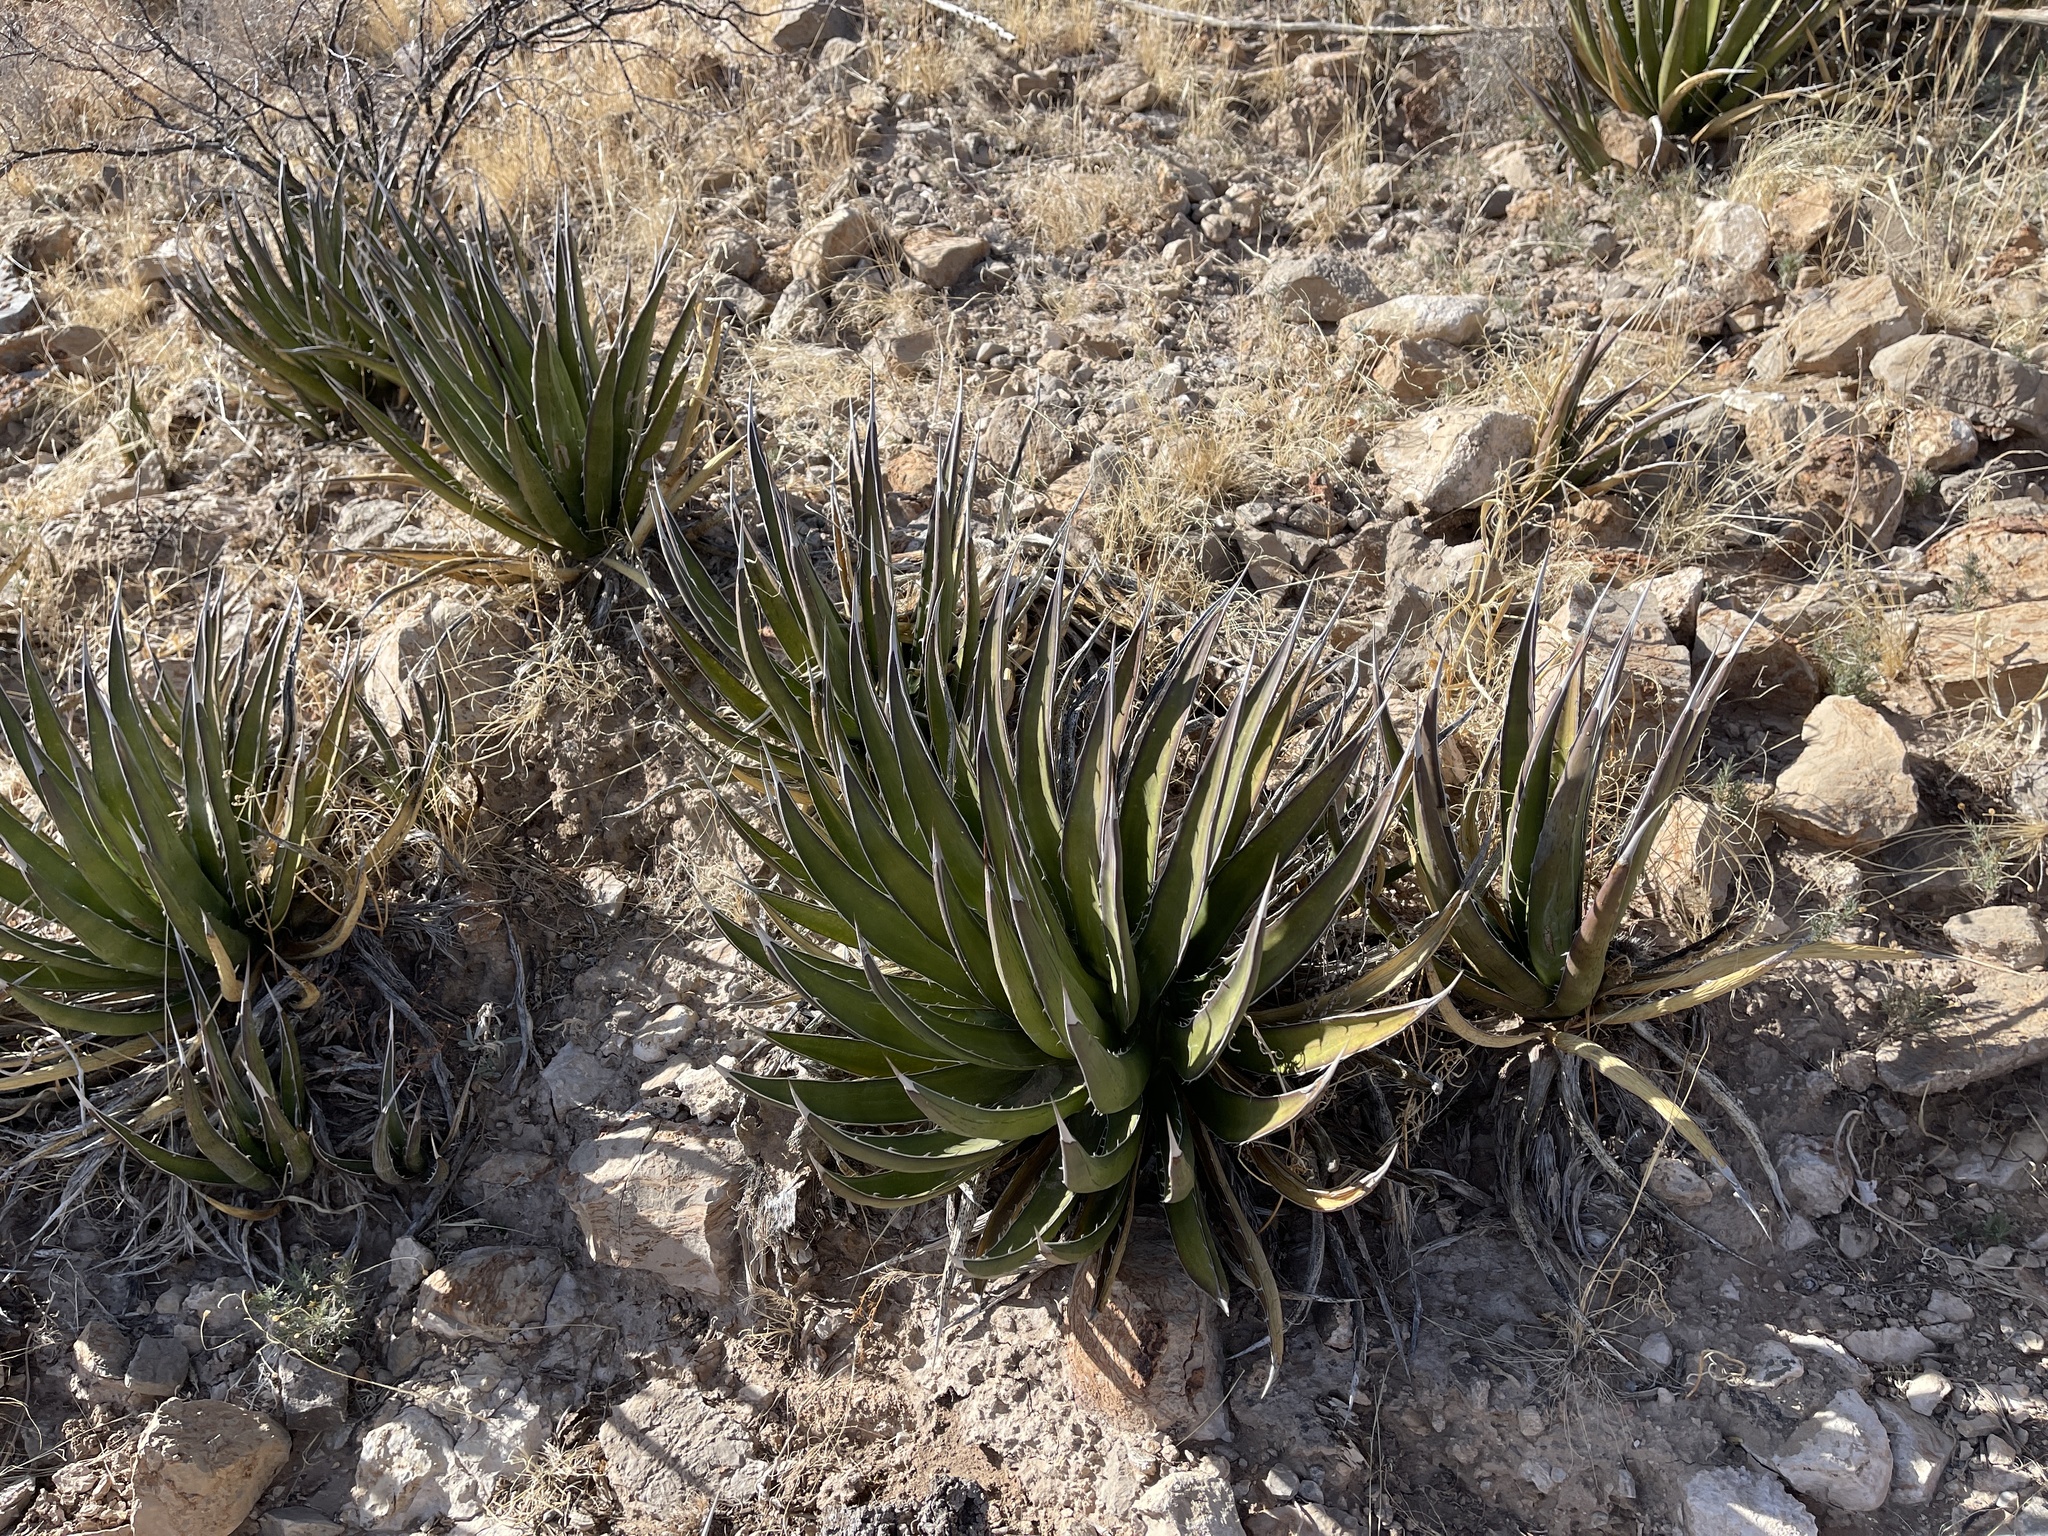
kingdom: Plantae
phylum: Tracheophyta
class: Liliopsida
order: Asparagales
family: Asparagaceae
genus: Agave
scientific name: Agave lechuguilla
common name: Lecheguilla agave
